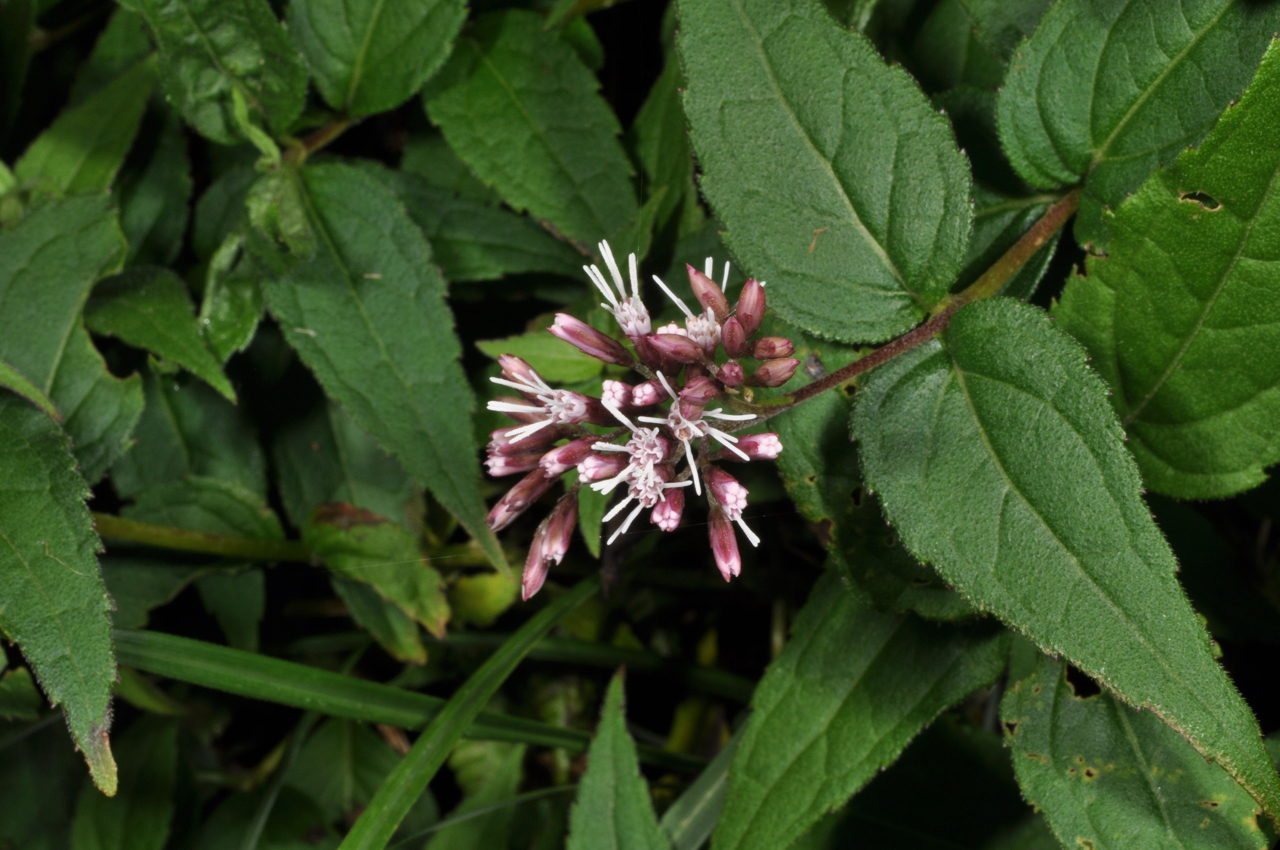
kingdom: Plantae
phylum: Tracheophyta
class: Magnoliopsida
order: Asterales
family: Asteraceae
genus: Eupatorium
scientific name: Eupatorium shimadae
